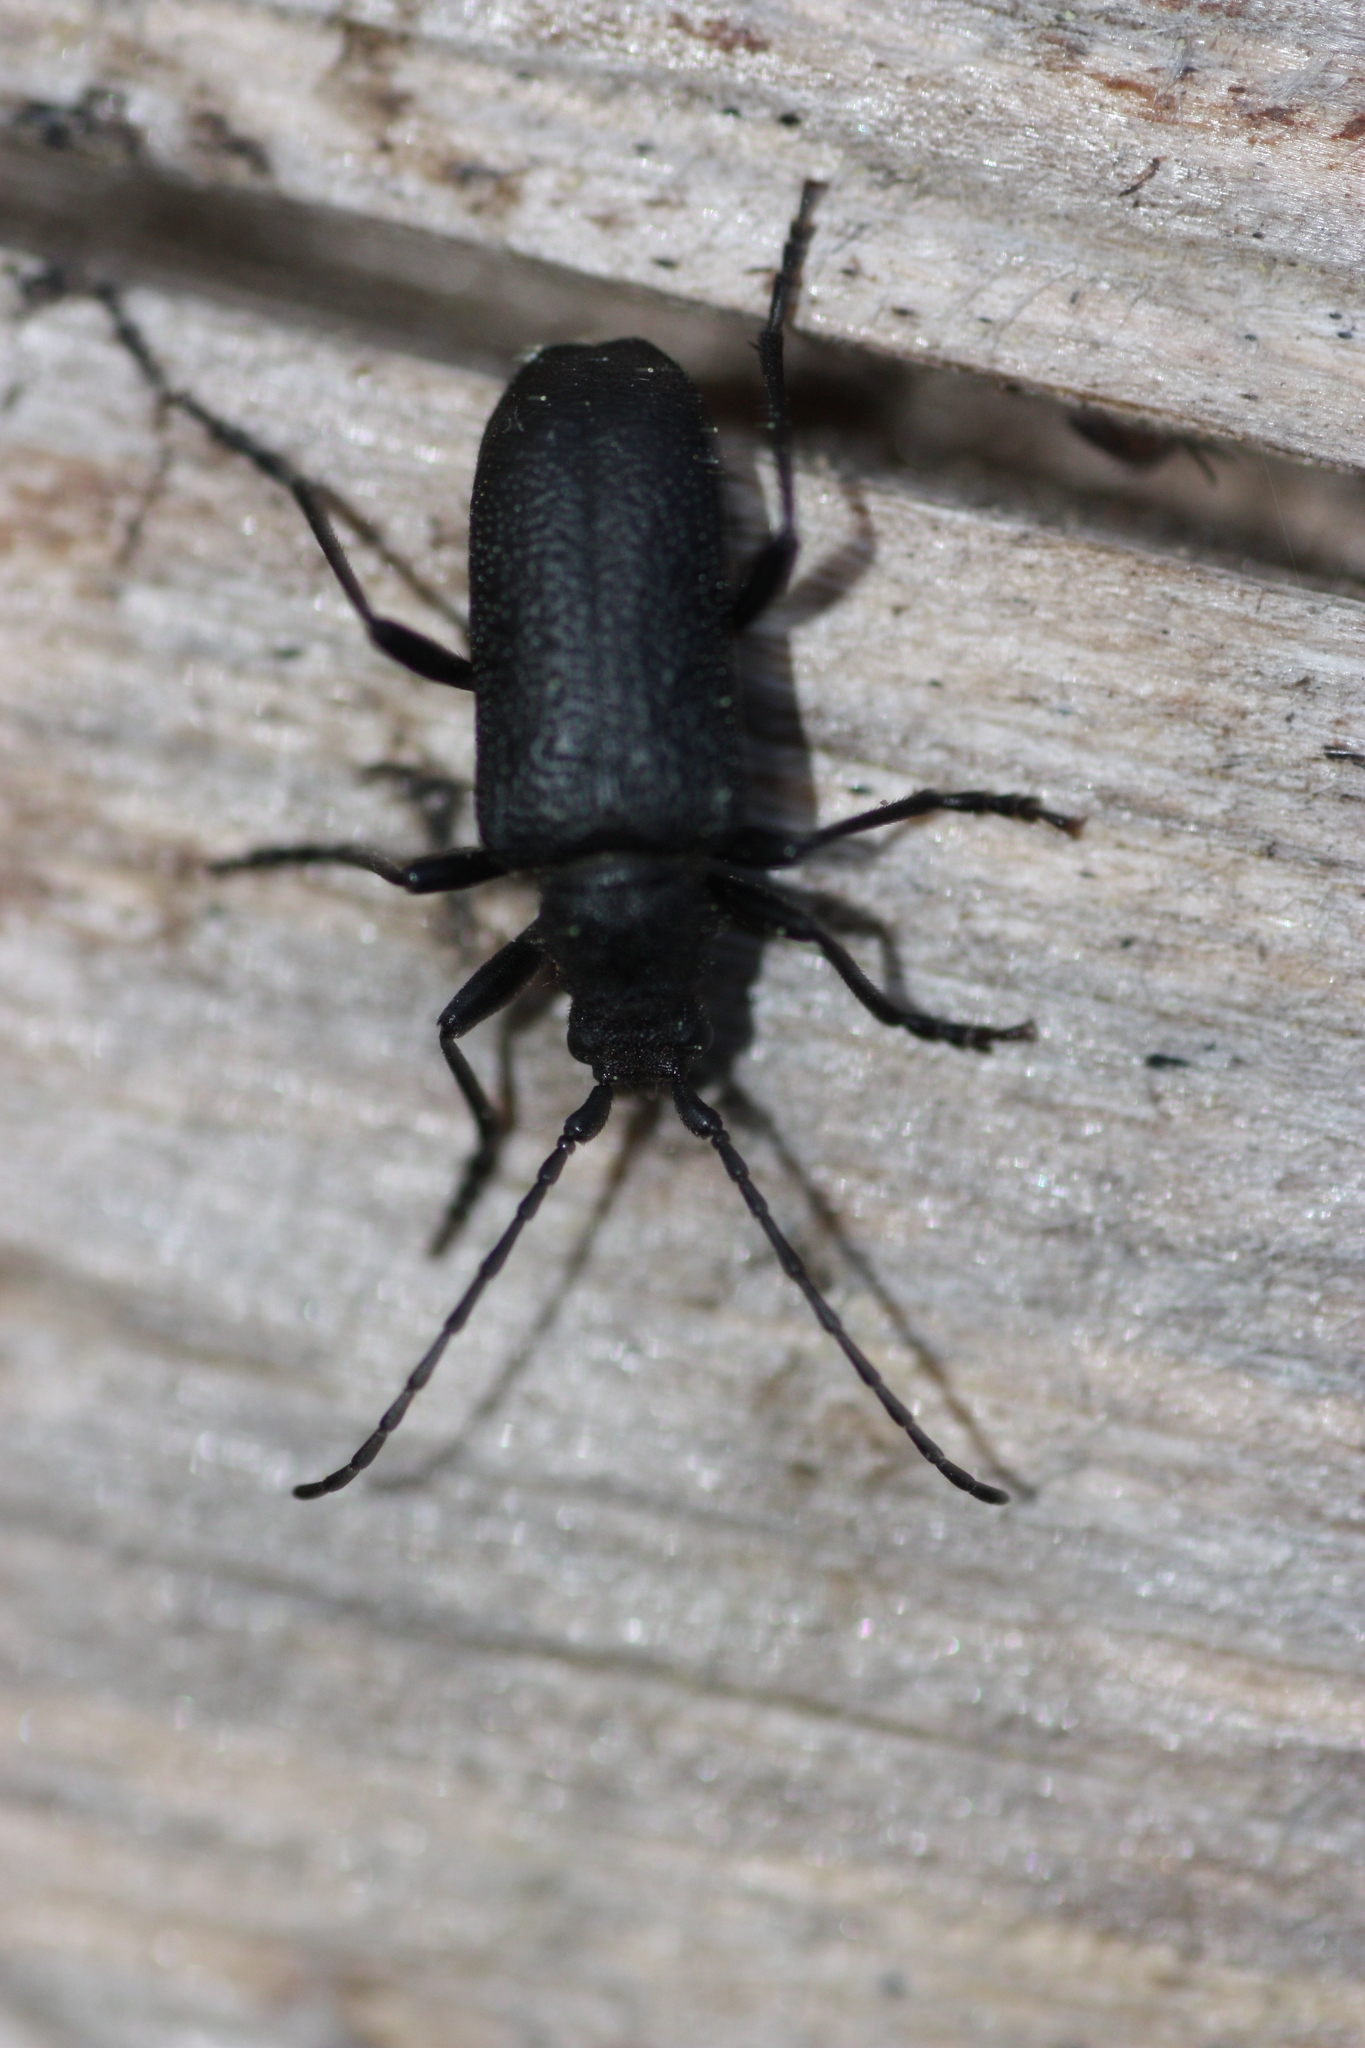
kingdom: Animalia
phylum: Arthropoda
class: Insecta
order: Coleoptera
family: Cerambycidae
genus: Neanthophylax
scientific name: Neanthophylax tenebrosus
